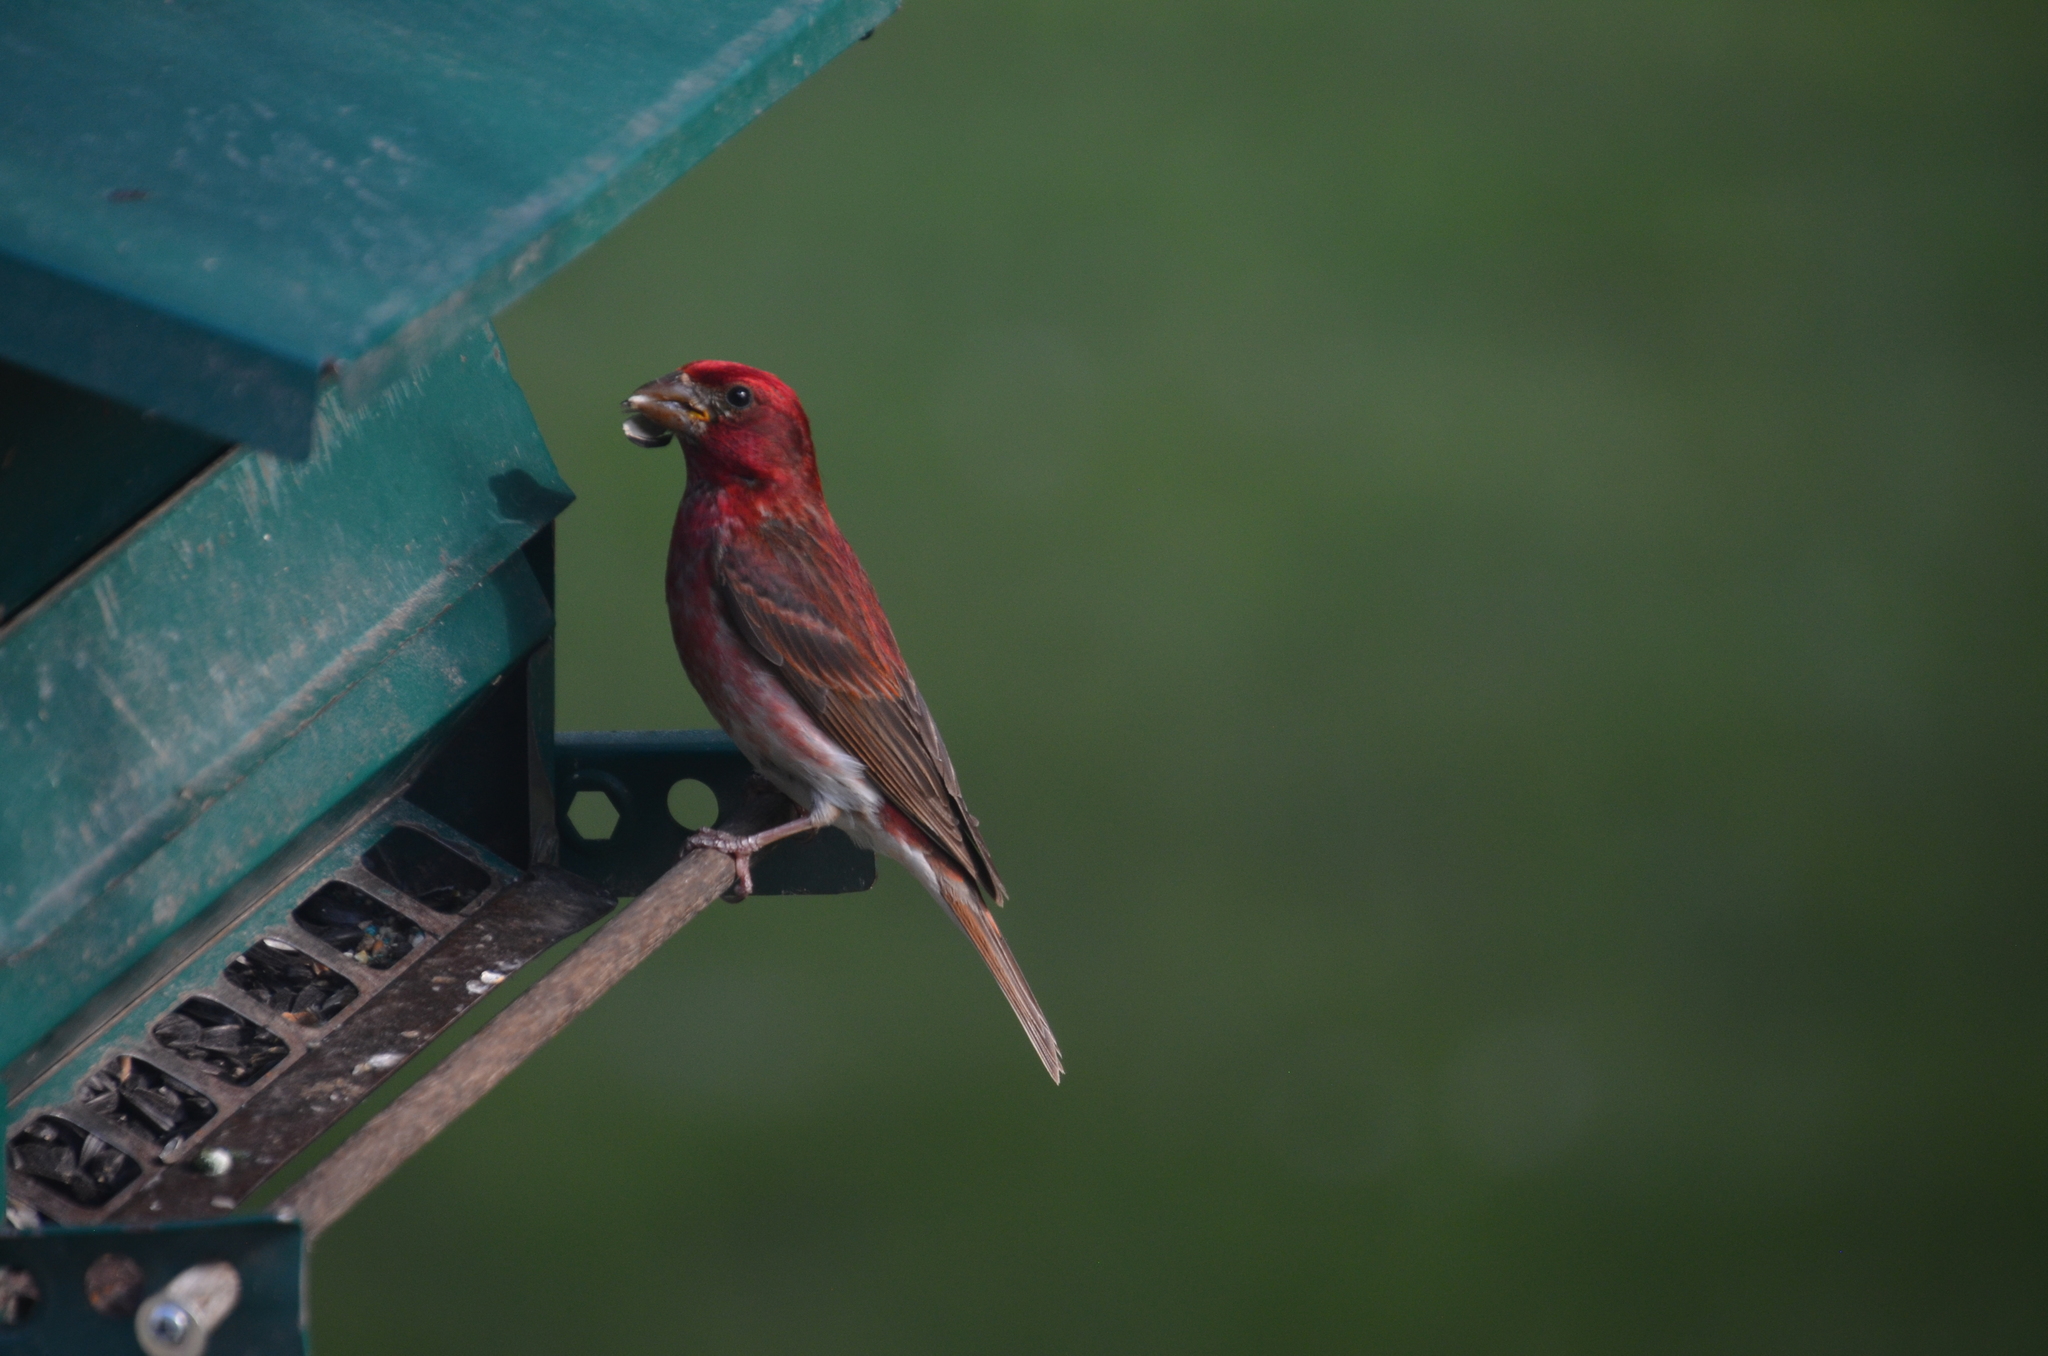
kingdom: Animalia
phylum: Chordata
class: Aves
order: Passeriformes
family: Fringillidae
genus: Haemorhous
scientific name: Haemorhous purpureus
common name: Purple finch
